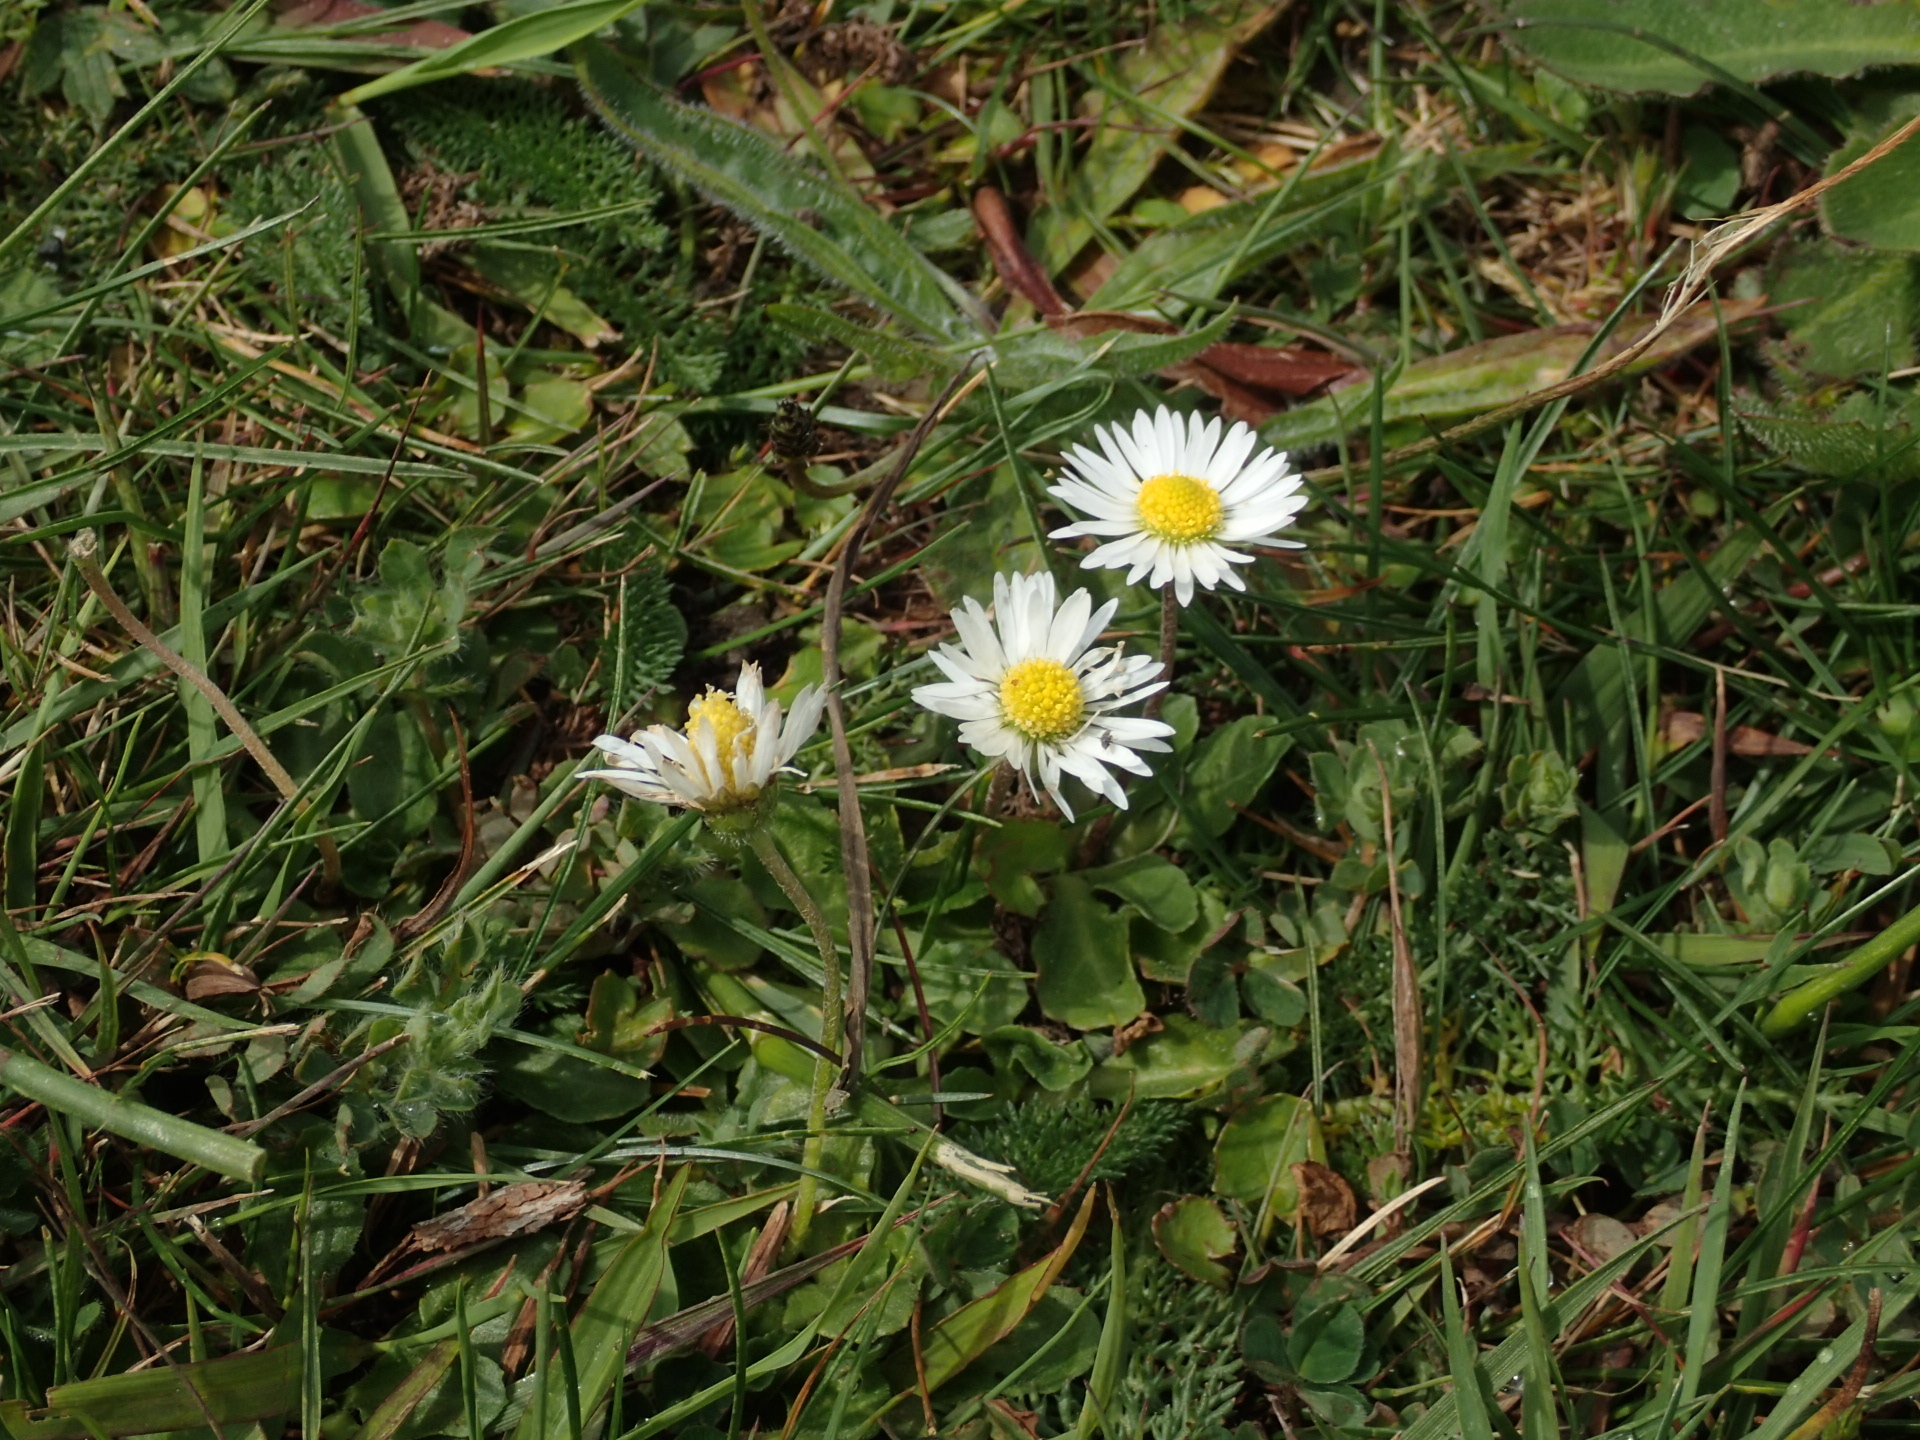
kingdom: Plantae
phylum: Tracheophyta
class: Magnoliopsida
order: Asterales
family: Asteraceae
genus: Bellis
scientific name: Bellis perennis
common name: Lawndaisy
